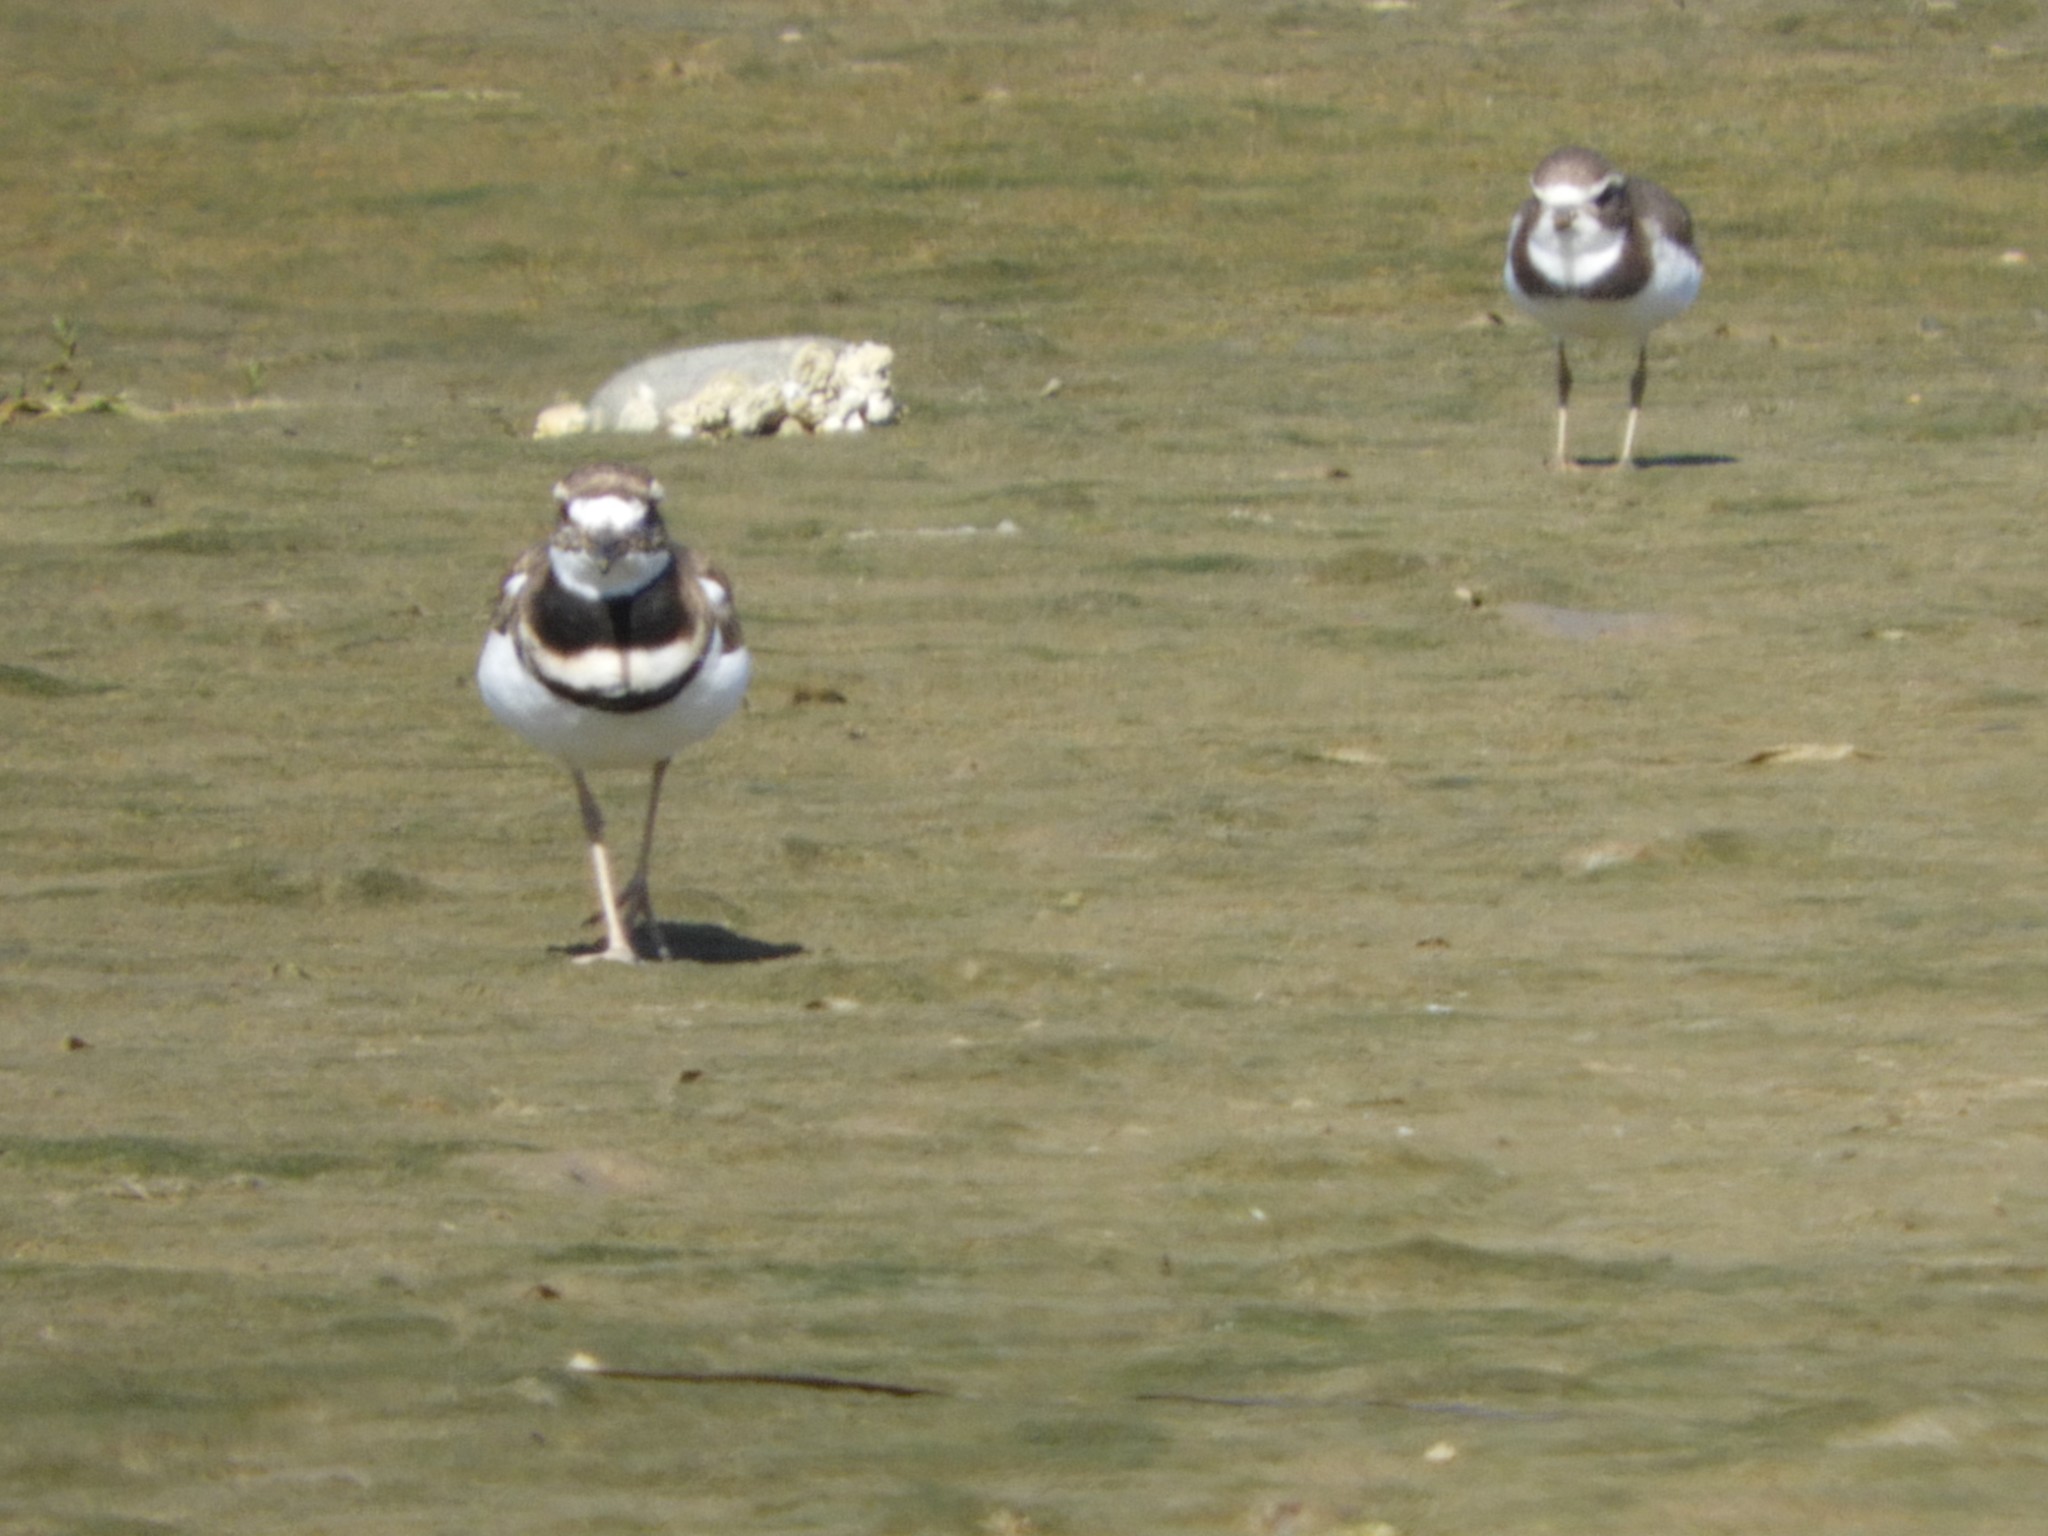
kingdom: Animalia
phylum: Chordata
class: Aves
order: Charadriiformes
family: Charadriidae
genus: Charadrius
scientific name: Charadrius vociferus
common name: Killdeer
